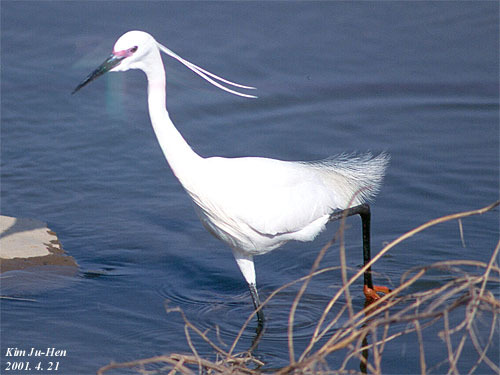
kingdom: Animalia
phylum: Chordata
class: Aves
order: Pelecaniformes
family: Ardeidae
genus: Egretta
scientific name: Egretta garzetta
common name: Little egret
